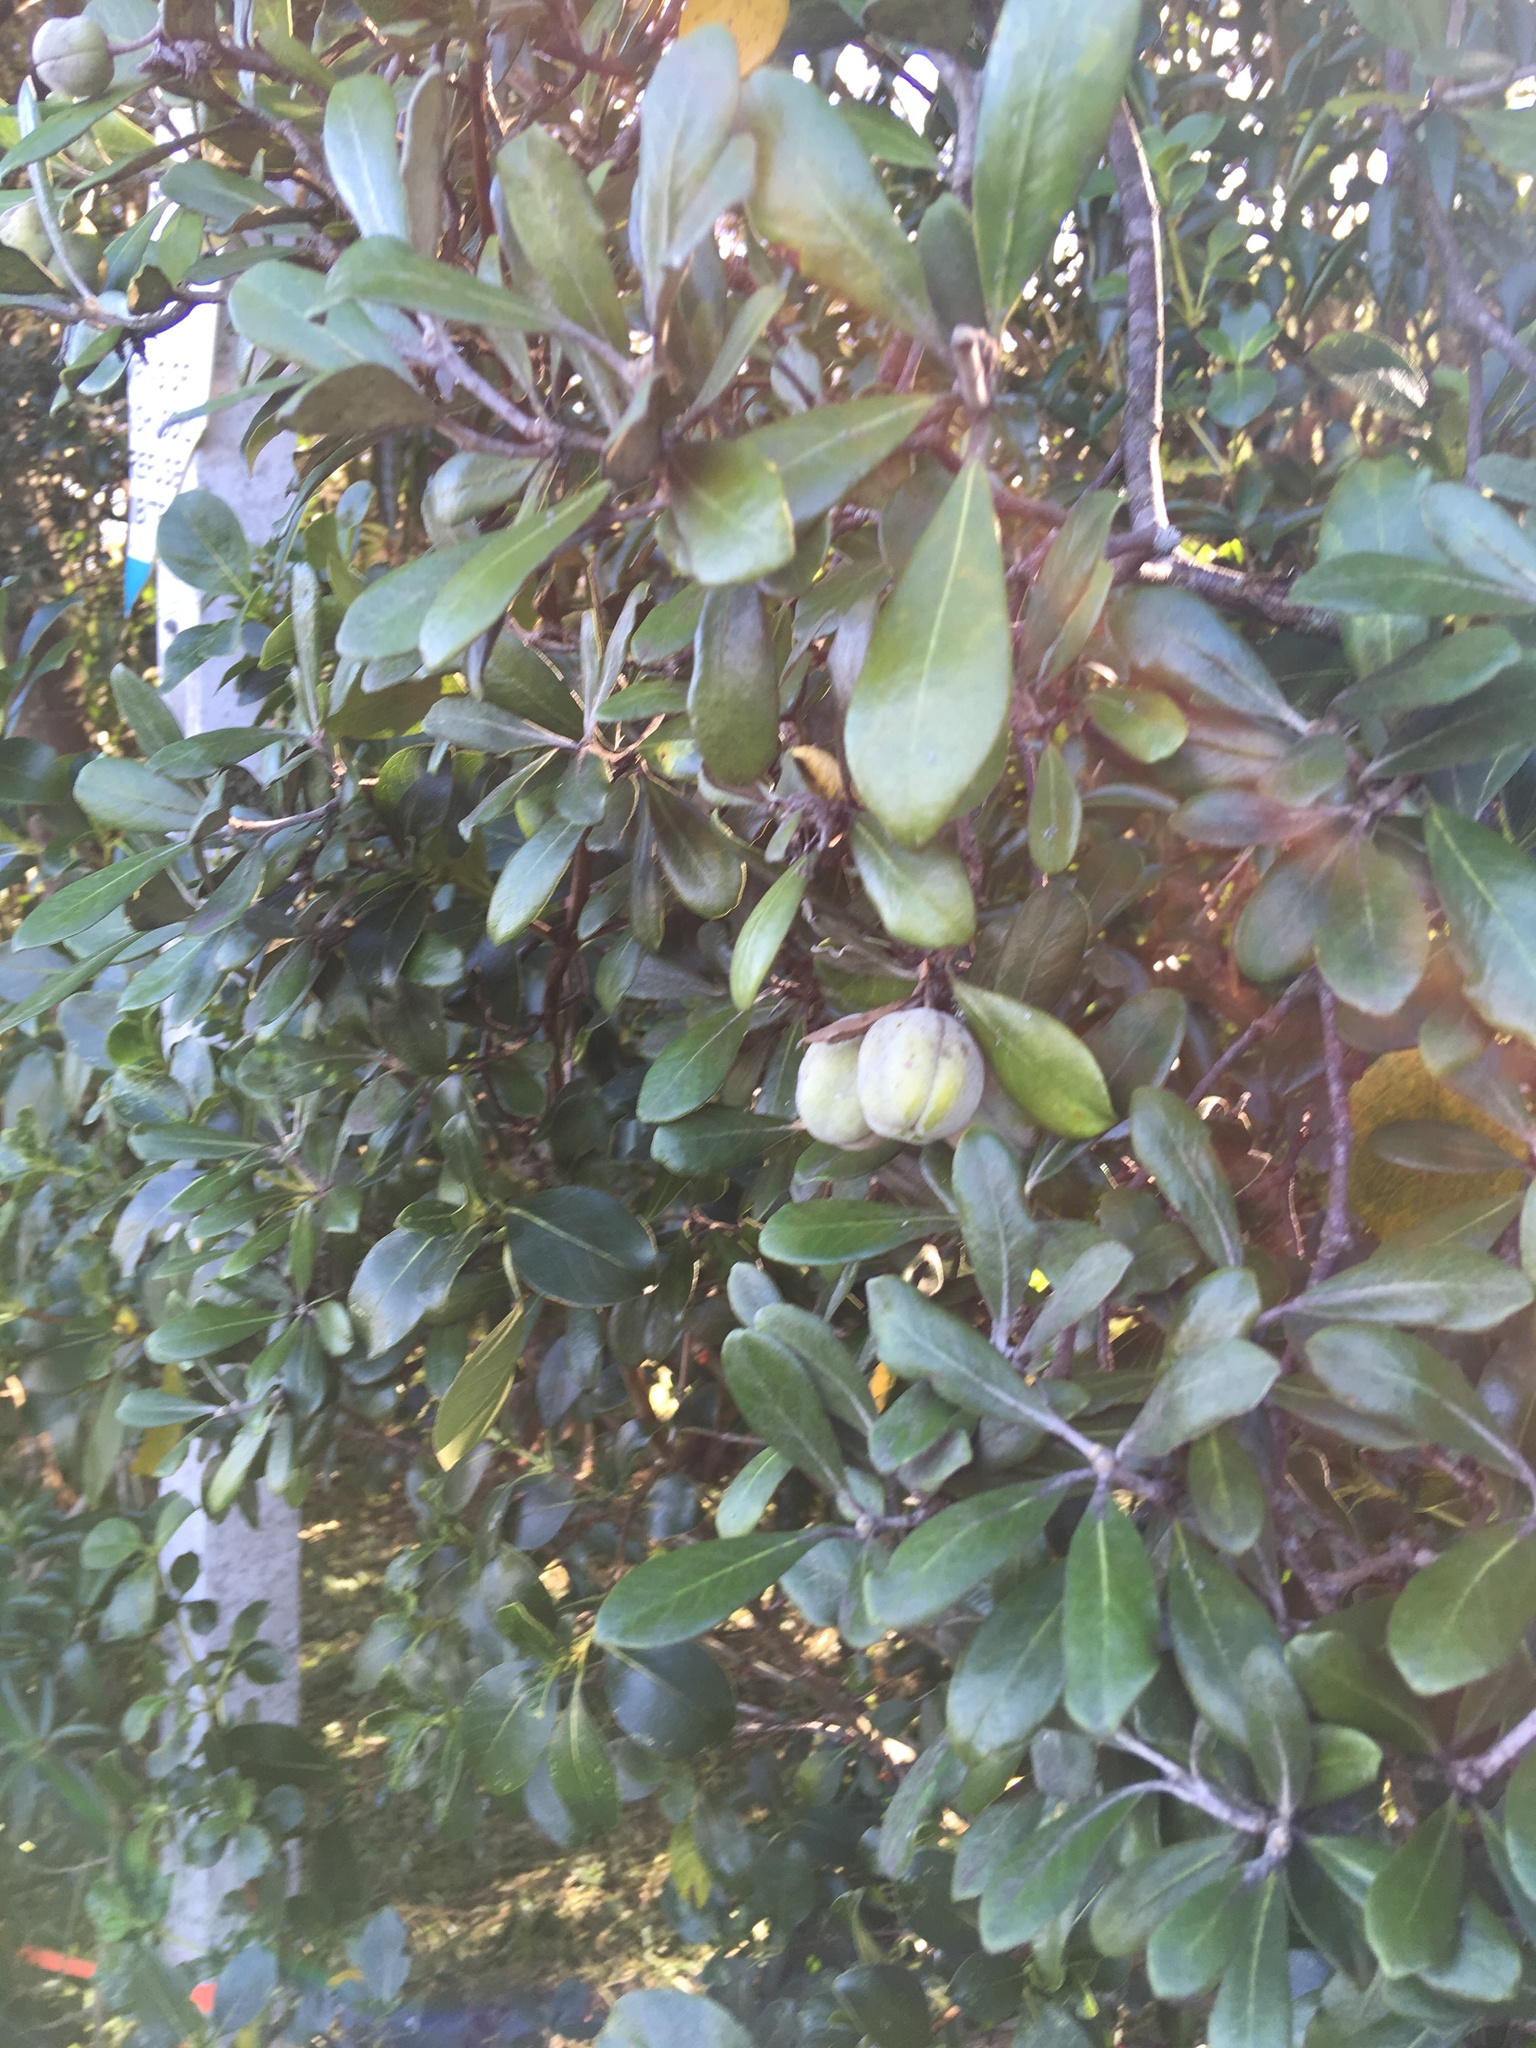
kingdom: Plantae
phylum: Tracheophyta
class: Magnoliopsida
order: Apiales
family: Pittosporaceae
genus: Pittosporum
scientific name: Pittosporum crassifolium
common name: Karo
